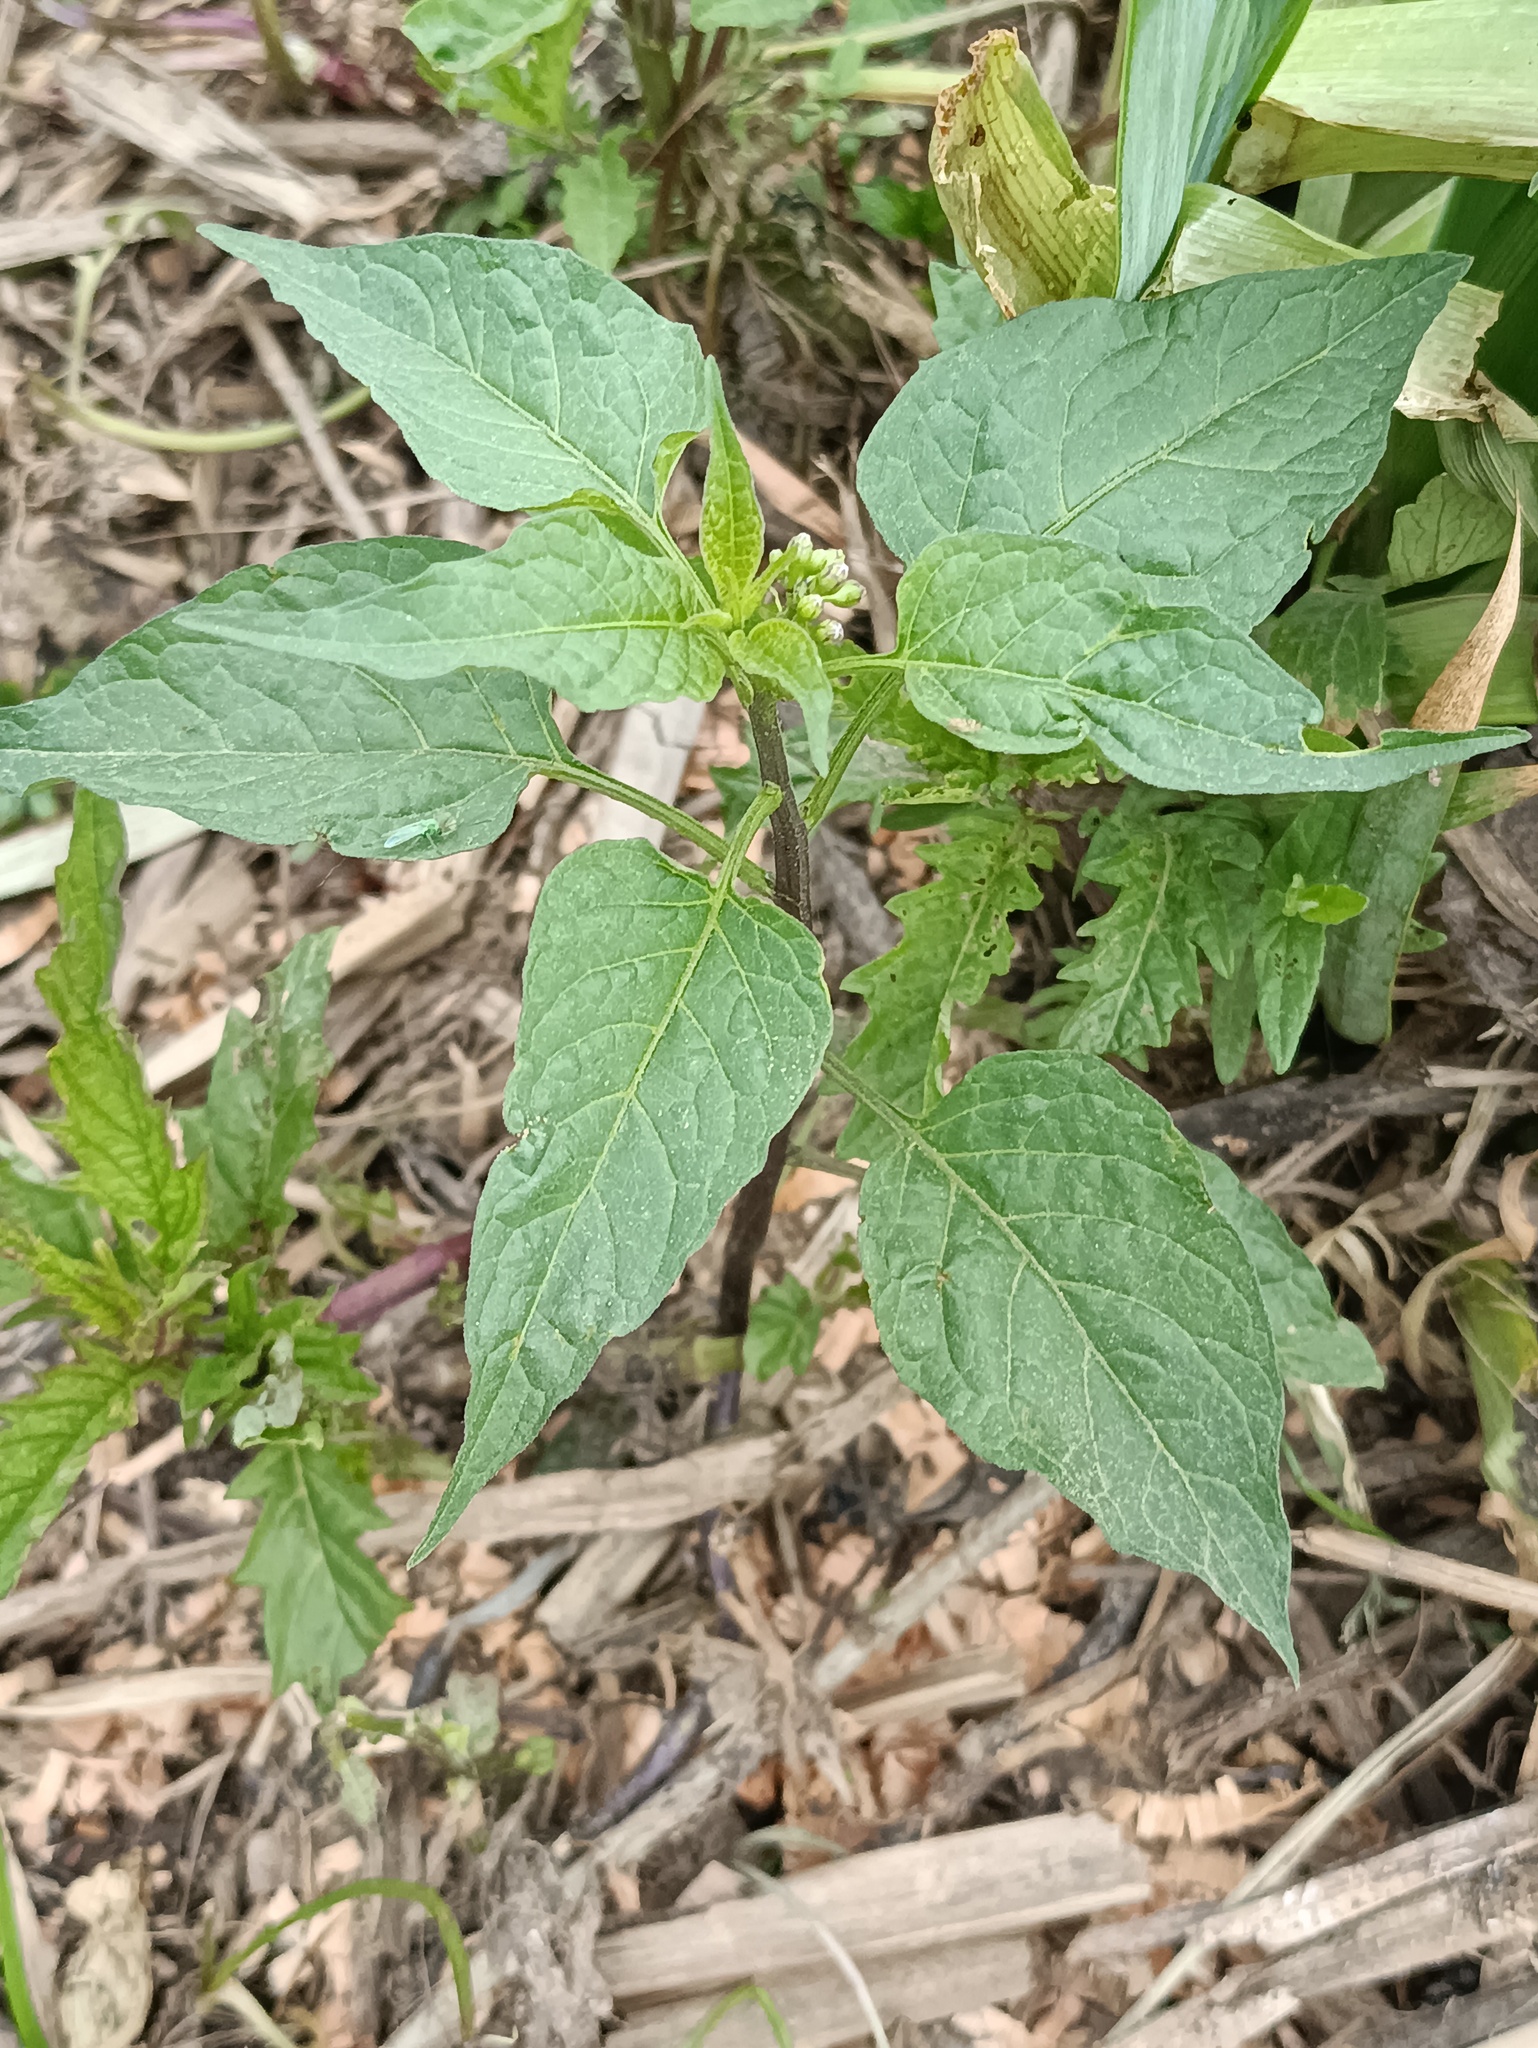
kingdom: Plantae
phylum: Tracheophyta
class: Magnoliopsida
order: Solanales
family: Solanaceae
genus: Solanum
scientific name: Solanum dulcamara
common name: Climbing nightshade
